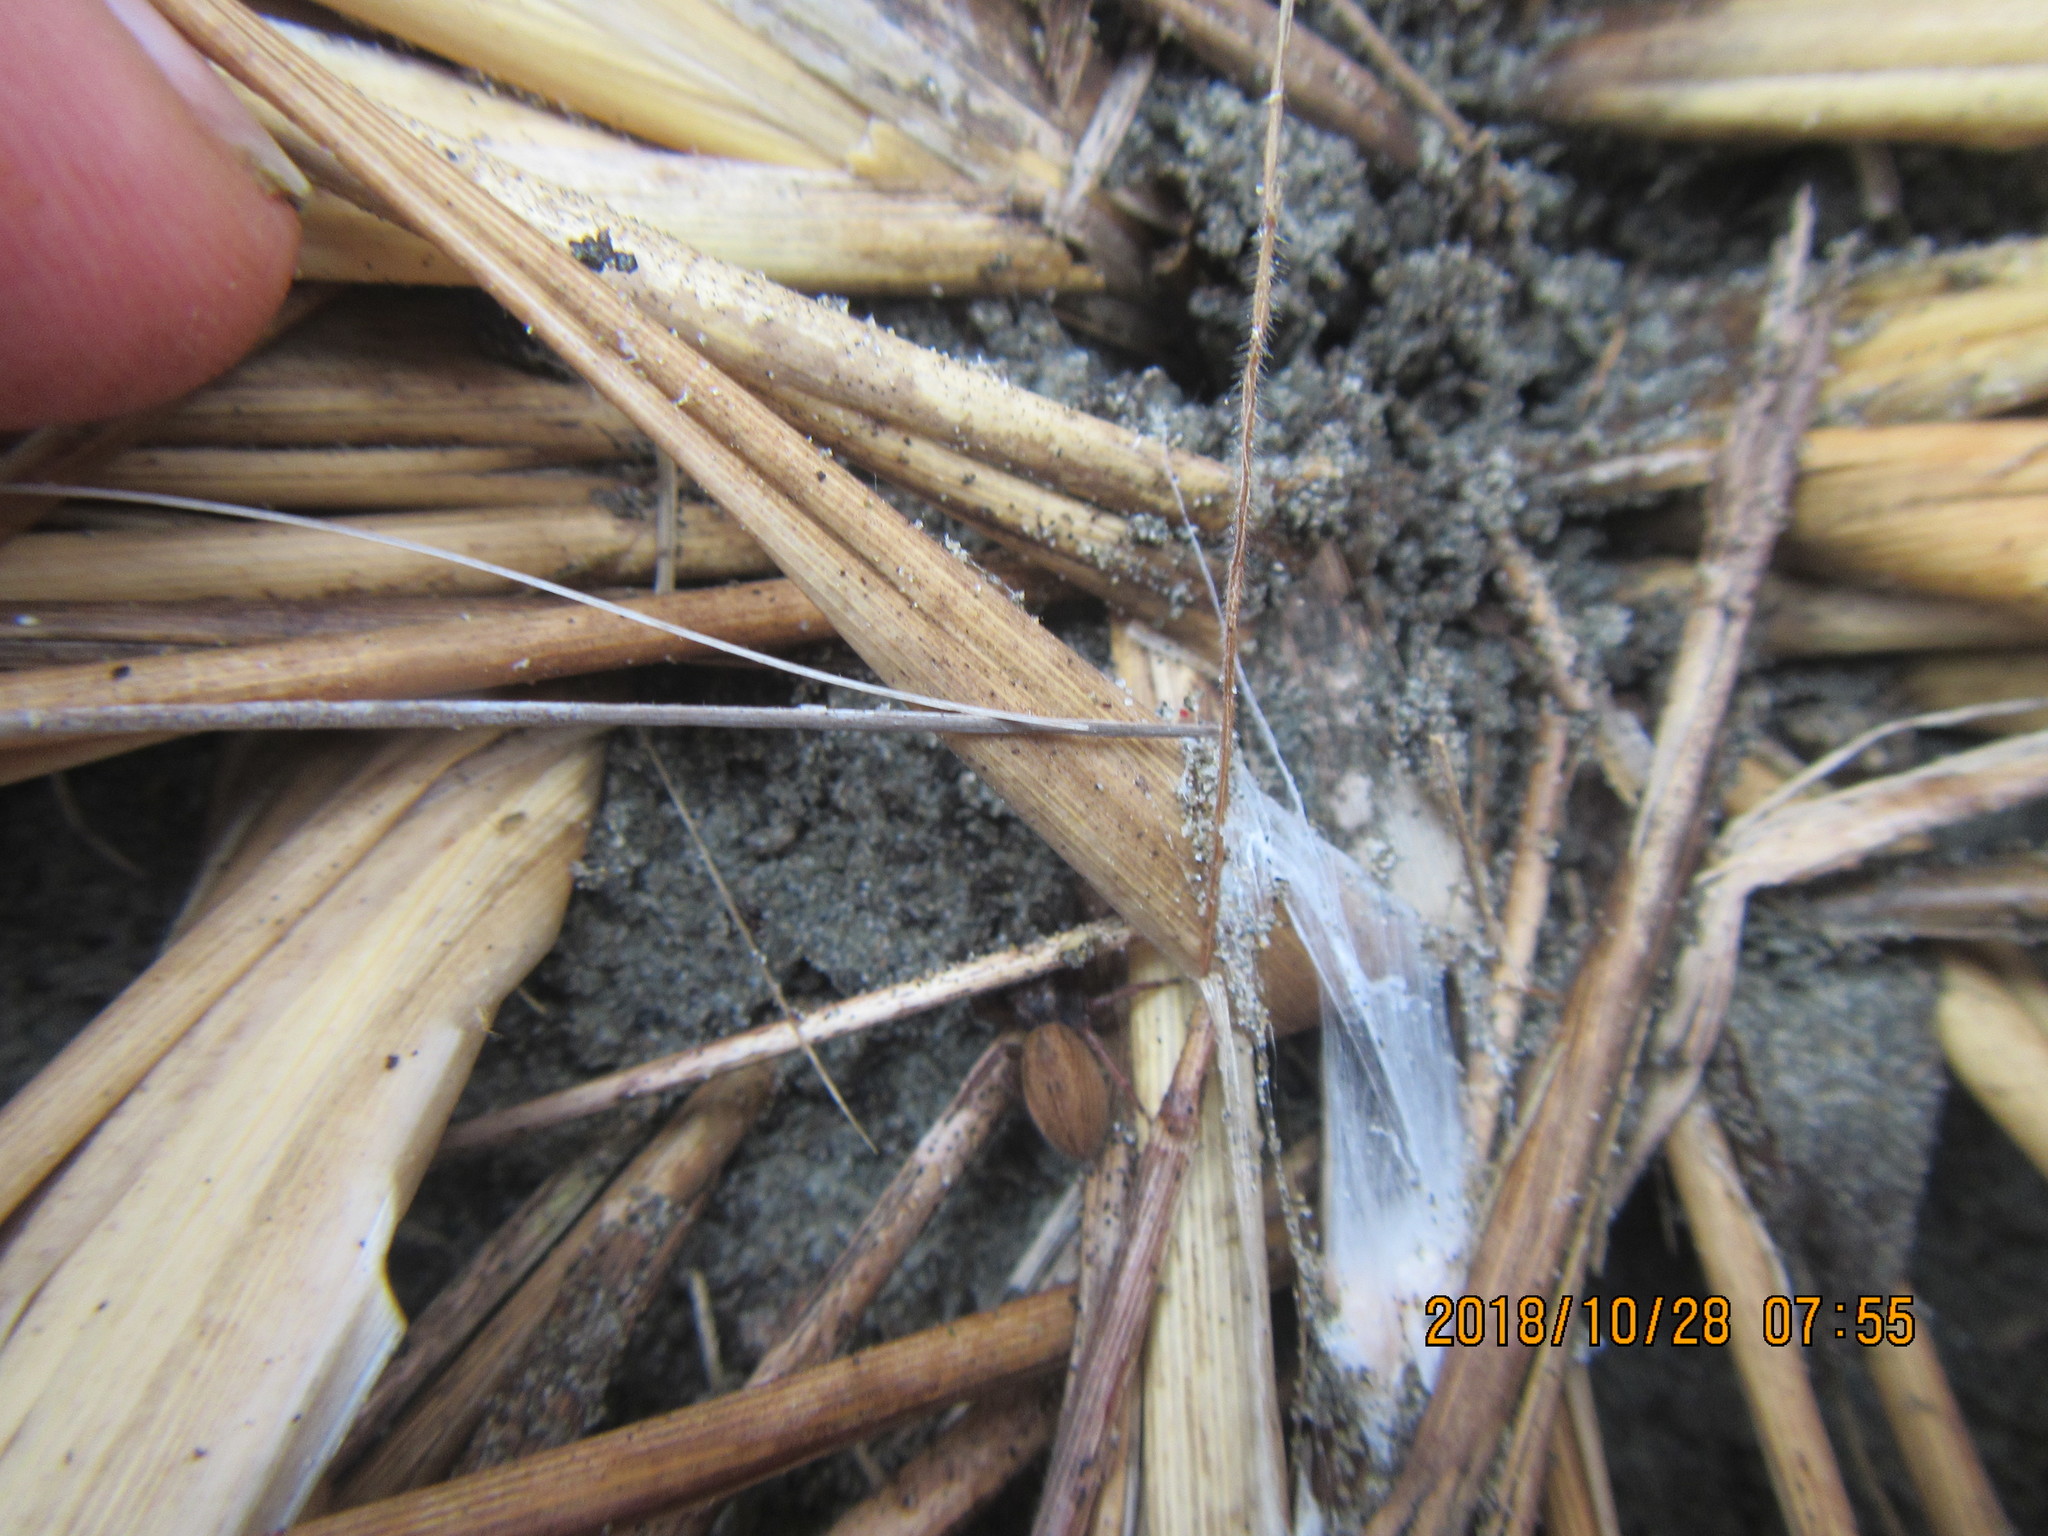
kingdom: Animalia
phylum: Arthropoda
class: Arachnida
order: Araneae
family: Salticidae
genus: Trite
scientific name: Trite auricoma
